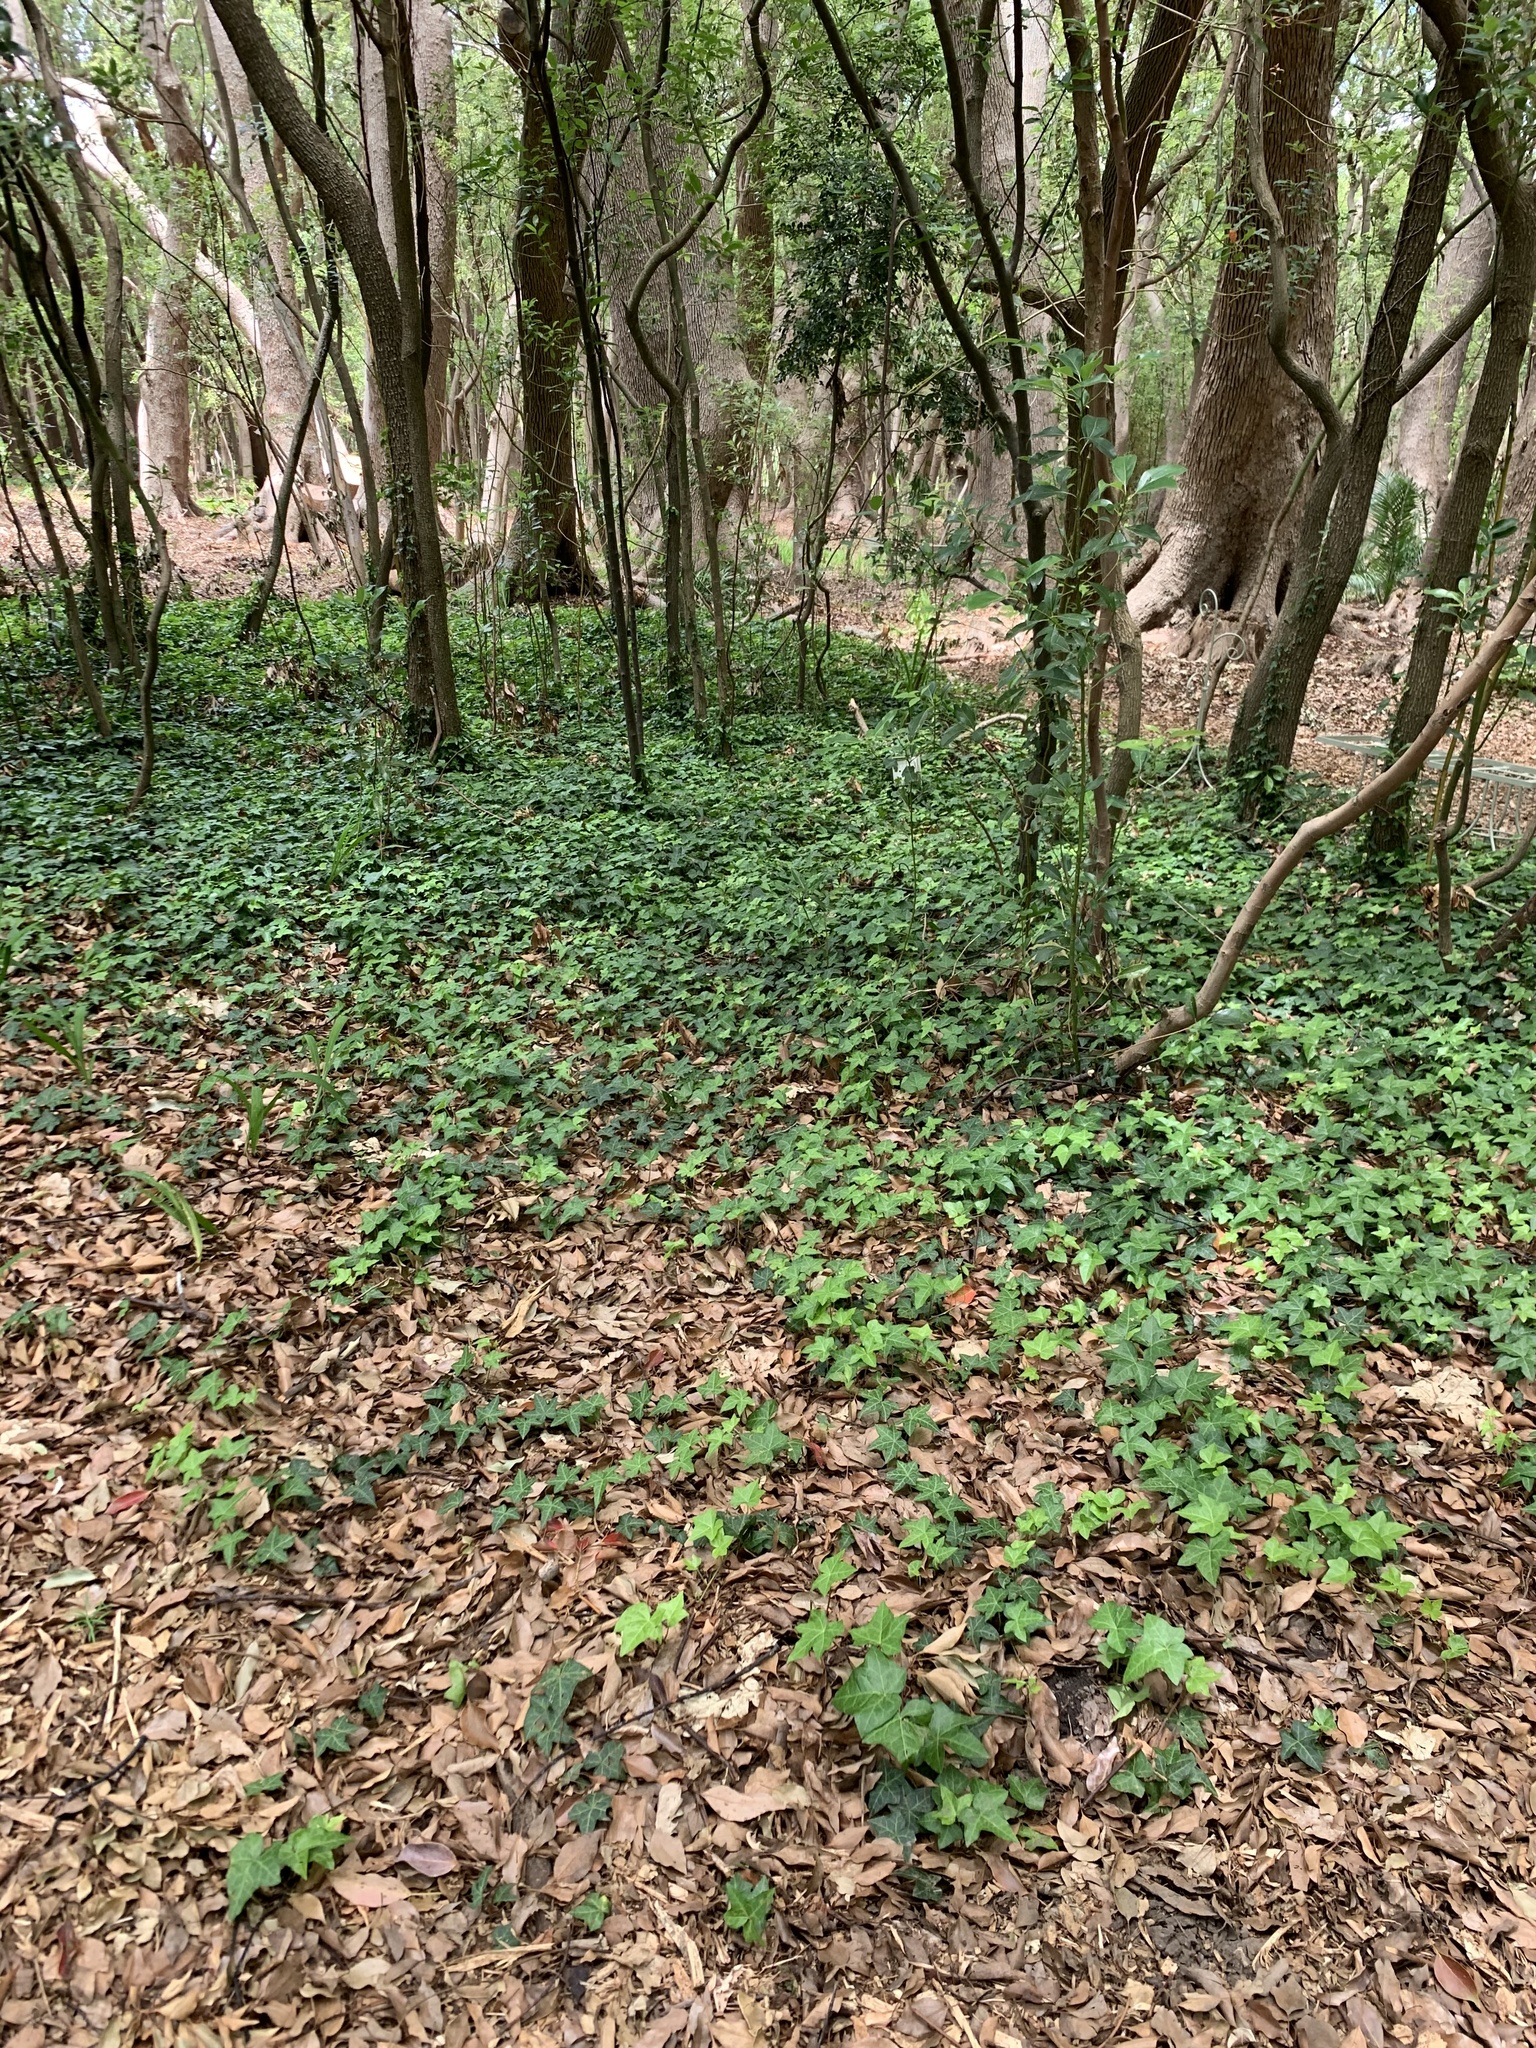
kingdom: Plantae
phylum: Tracheophyta
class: Magnoliopsida
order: Apiales
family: Araliaceae
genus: Hedera
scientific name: Hedera helix
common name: Ivy
